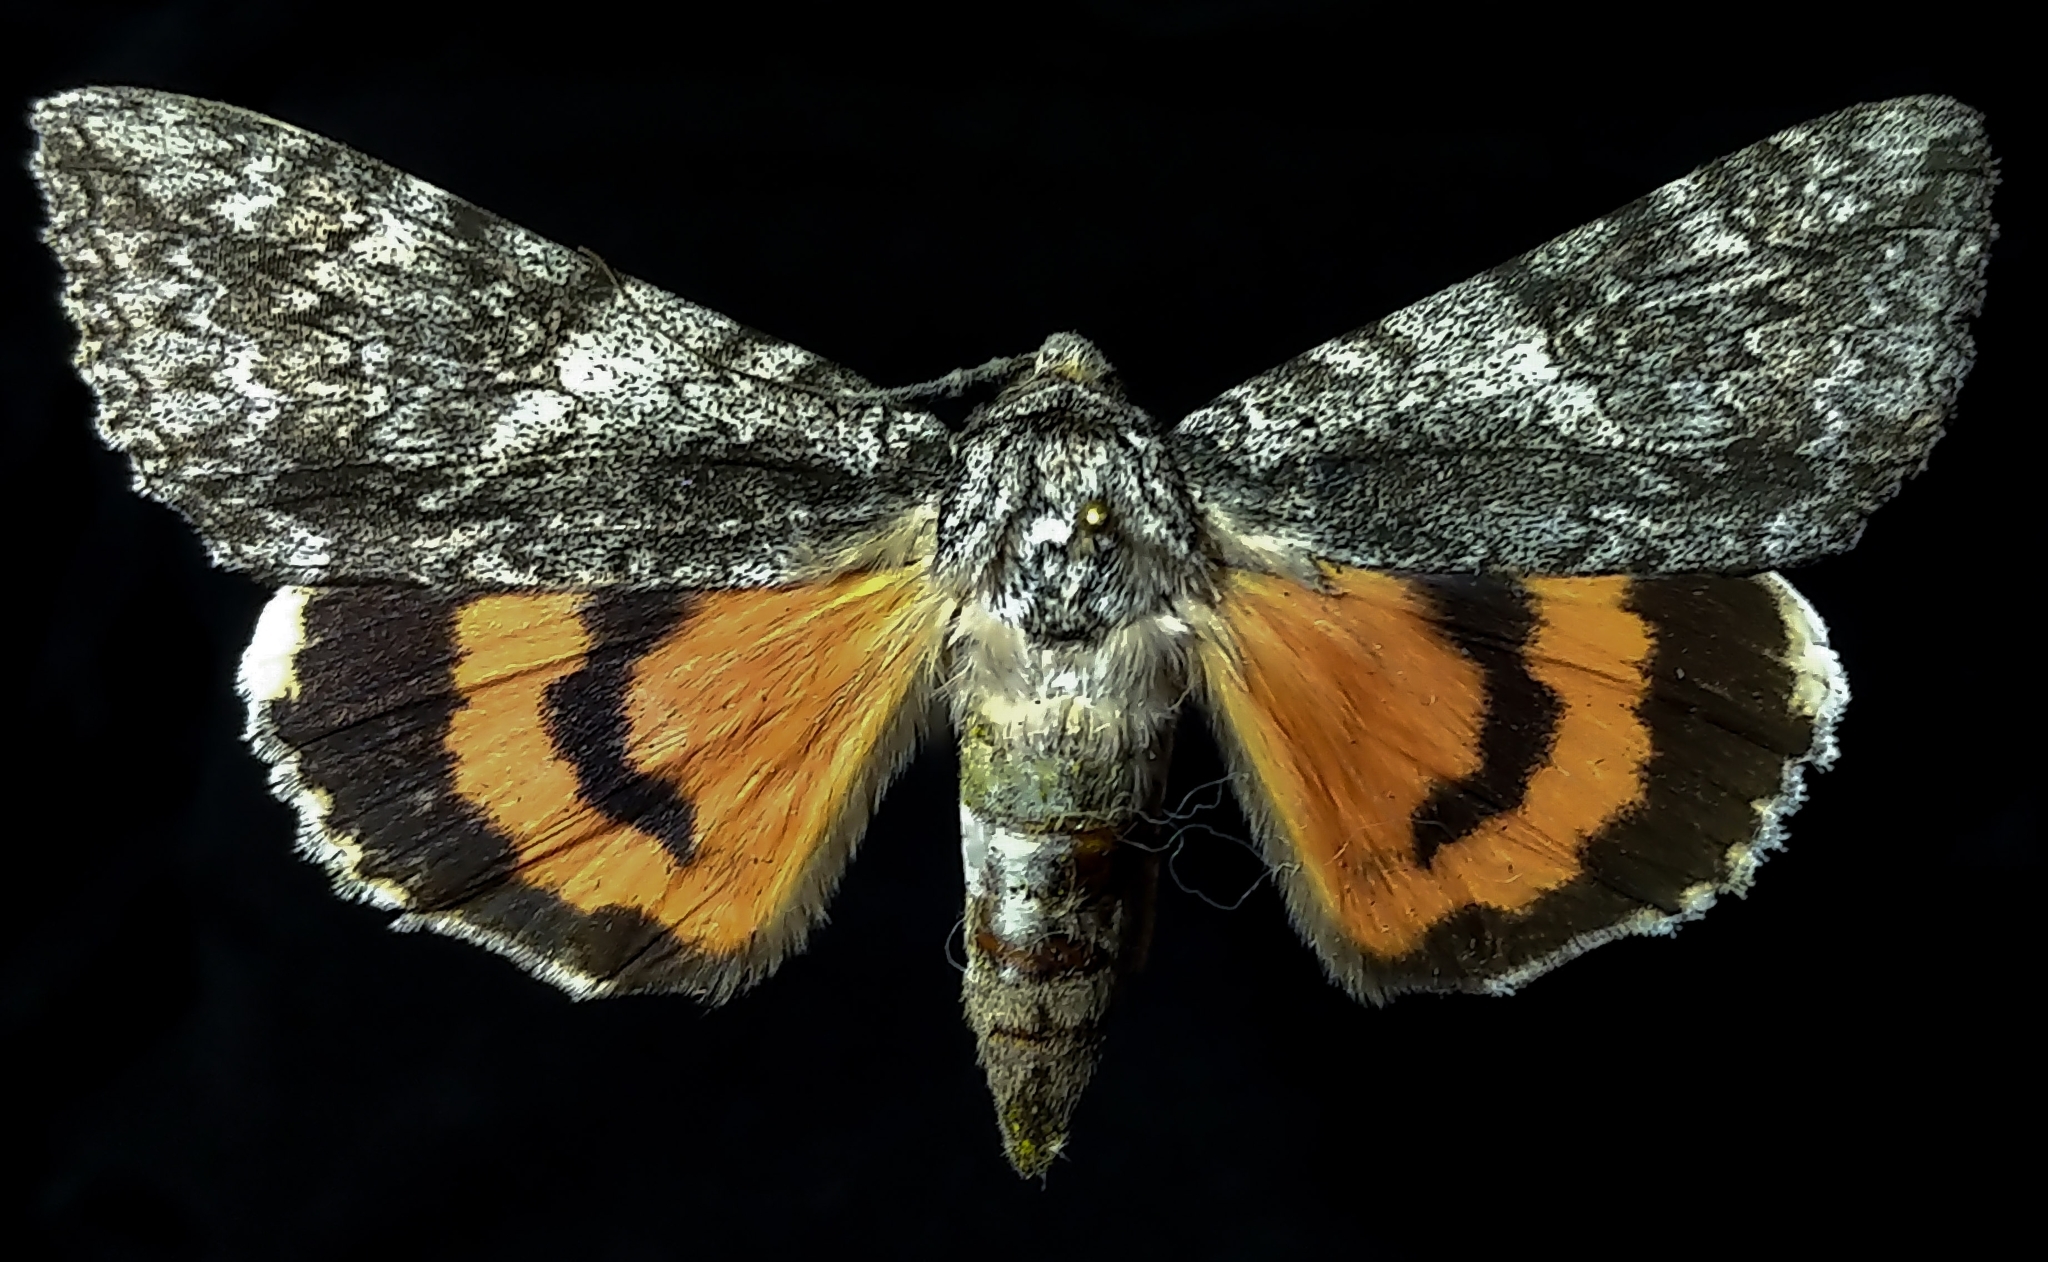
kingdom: Animalia
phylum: Arthropoda
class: Insecta
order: Lepidoptera
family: Erebidae
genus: Catocala
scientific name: Catocala meskei
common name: Meske's underwing moth
